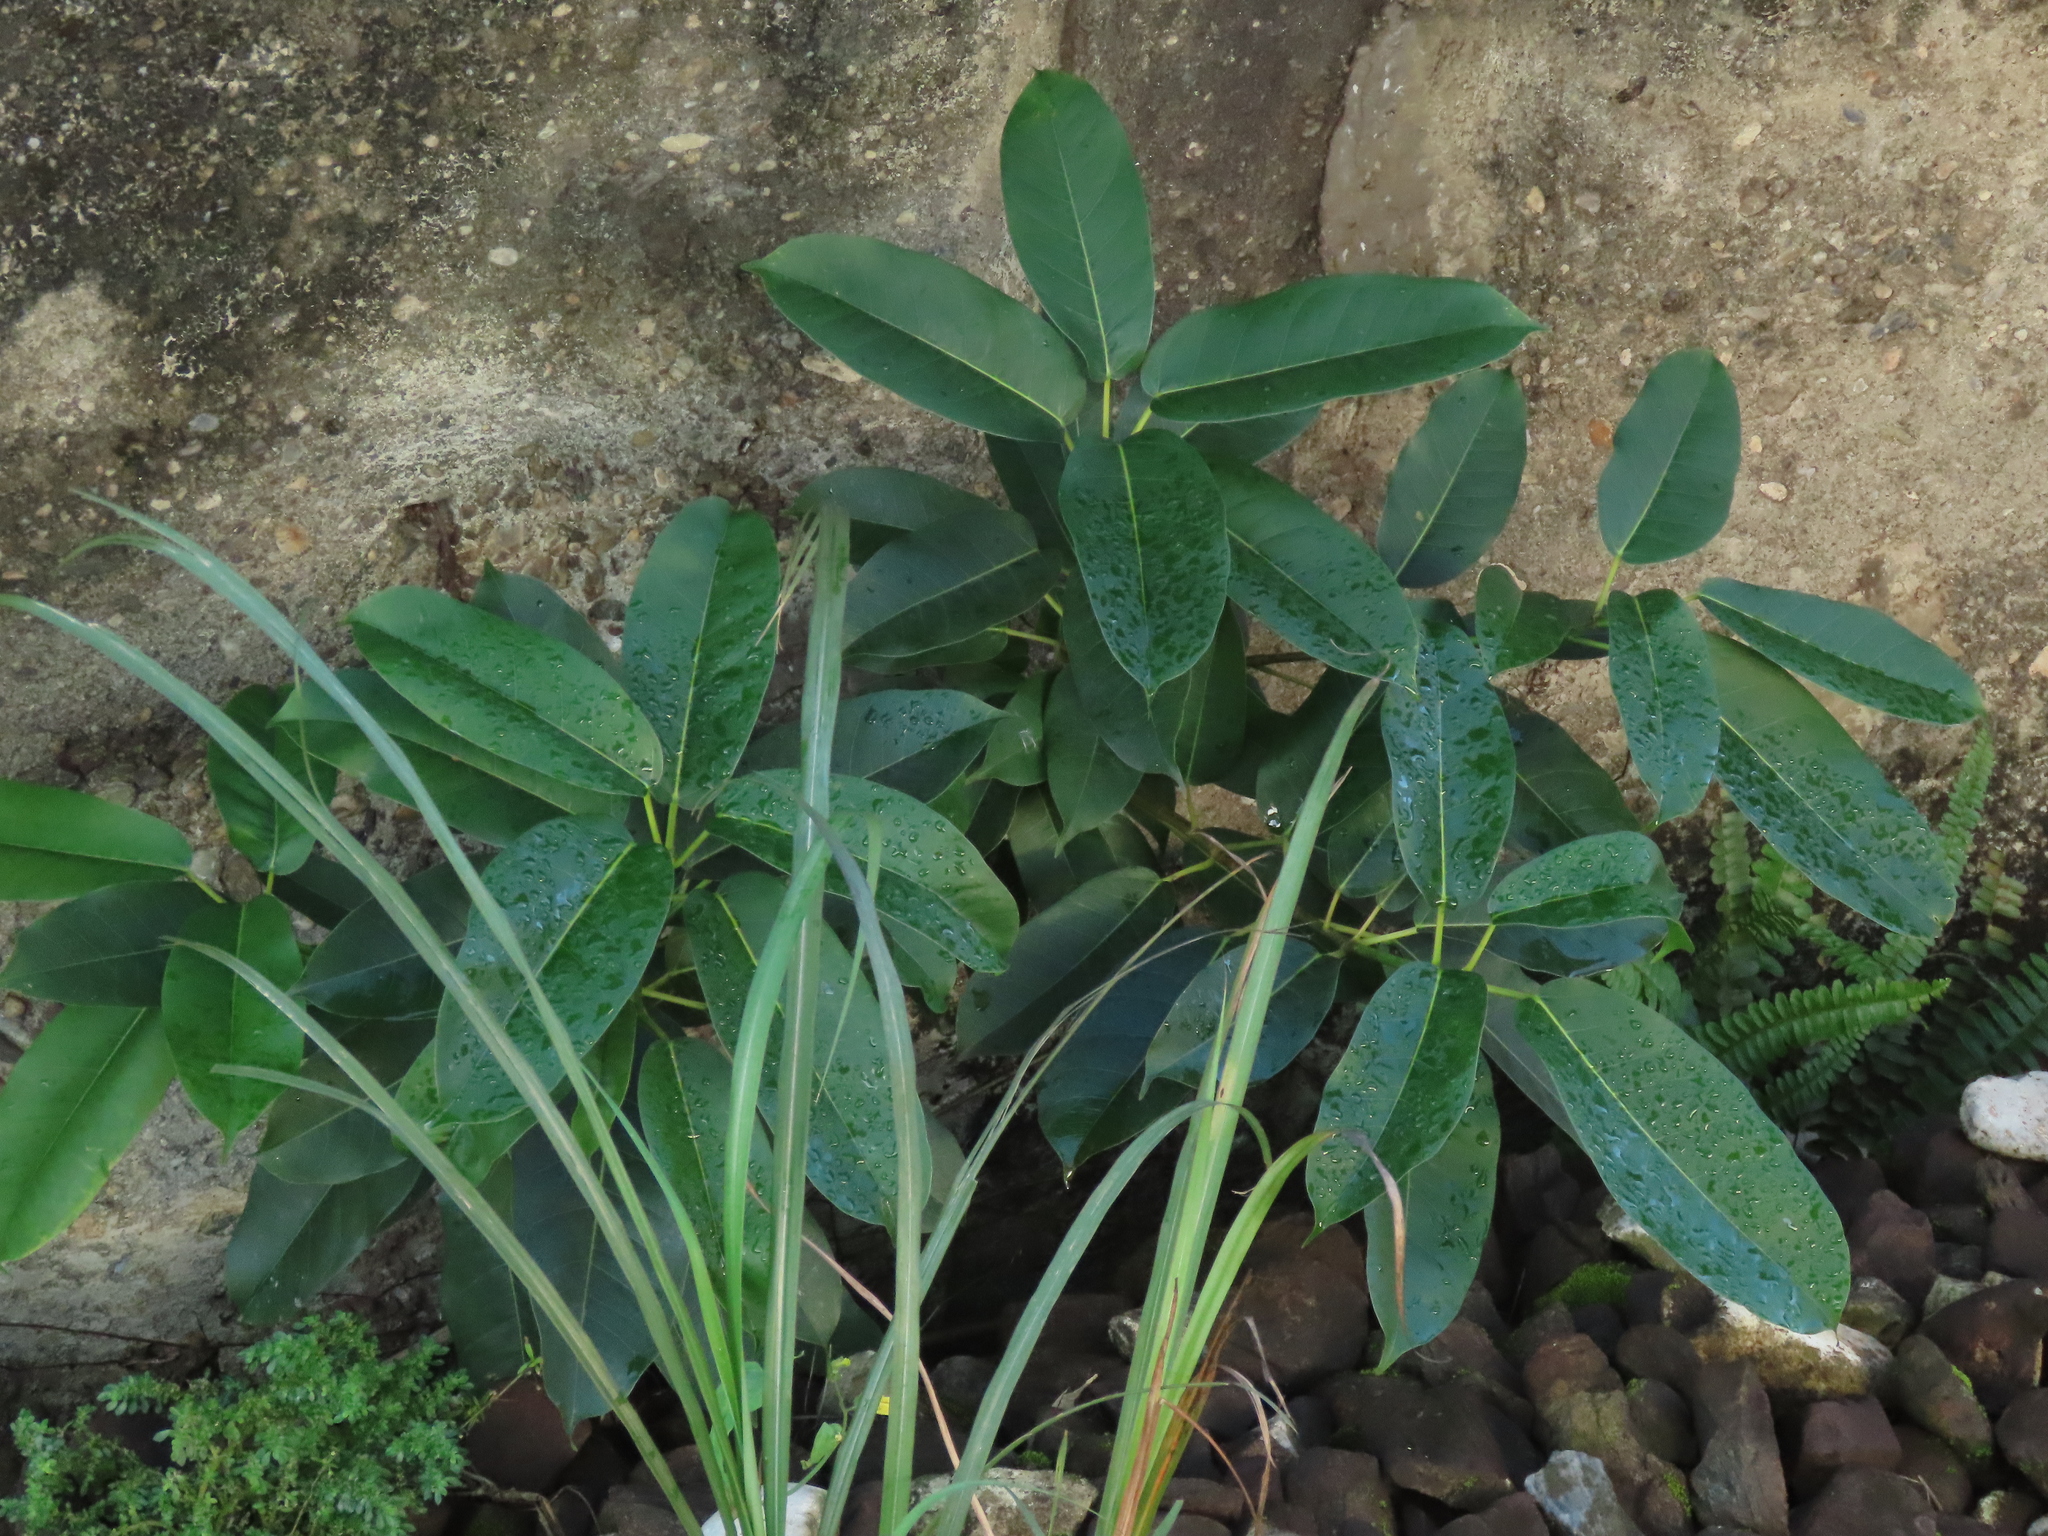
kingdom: Plantae
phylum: Tracheophyta
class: Magnoliopsida
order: Rosales
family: Moraceae
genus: Ficus
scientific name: Ficus subpisocarpa
